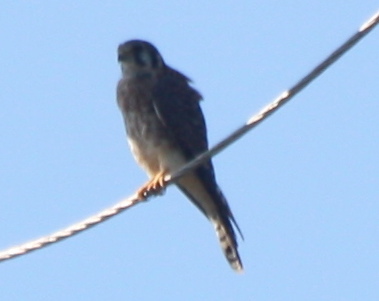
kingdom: Animalia
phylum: Chordata
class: Aves
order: Falconiformes
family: Falconidae
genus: Falco
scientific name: Falco sparverius
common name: American kestrel
